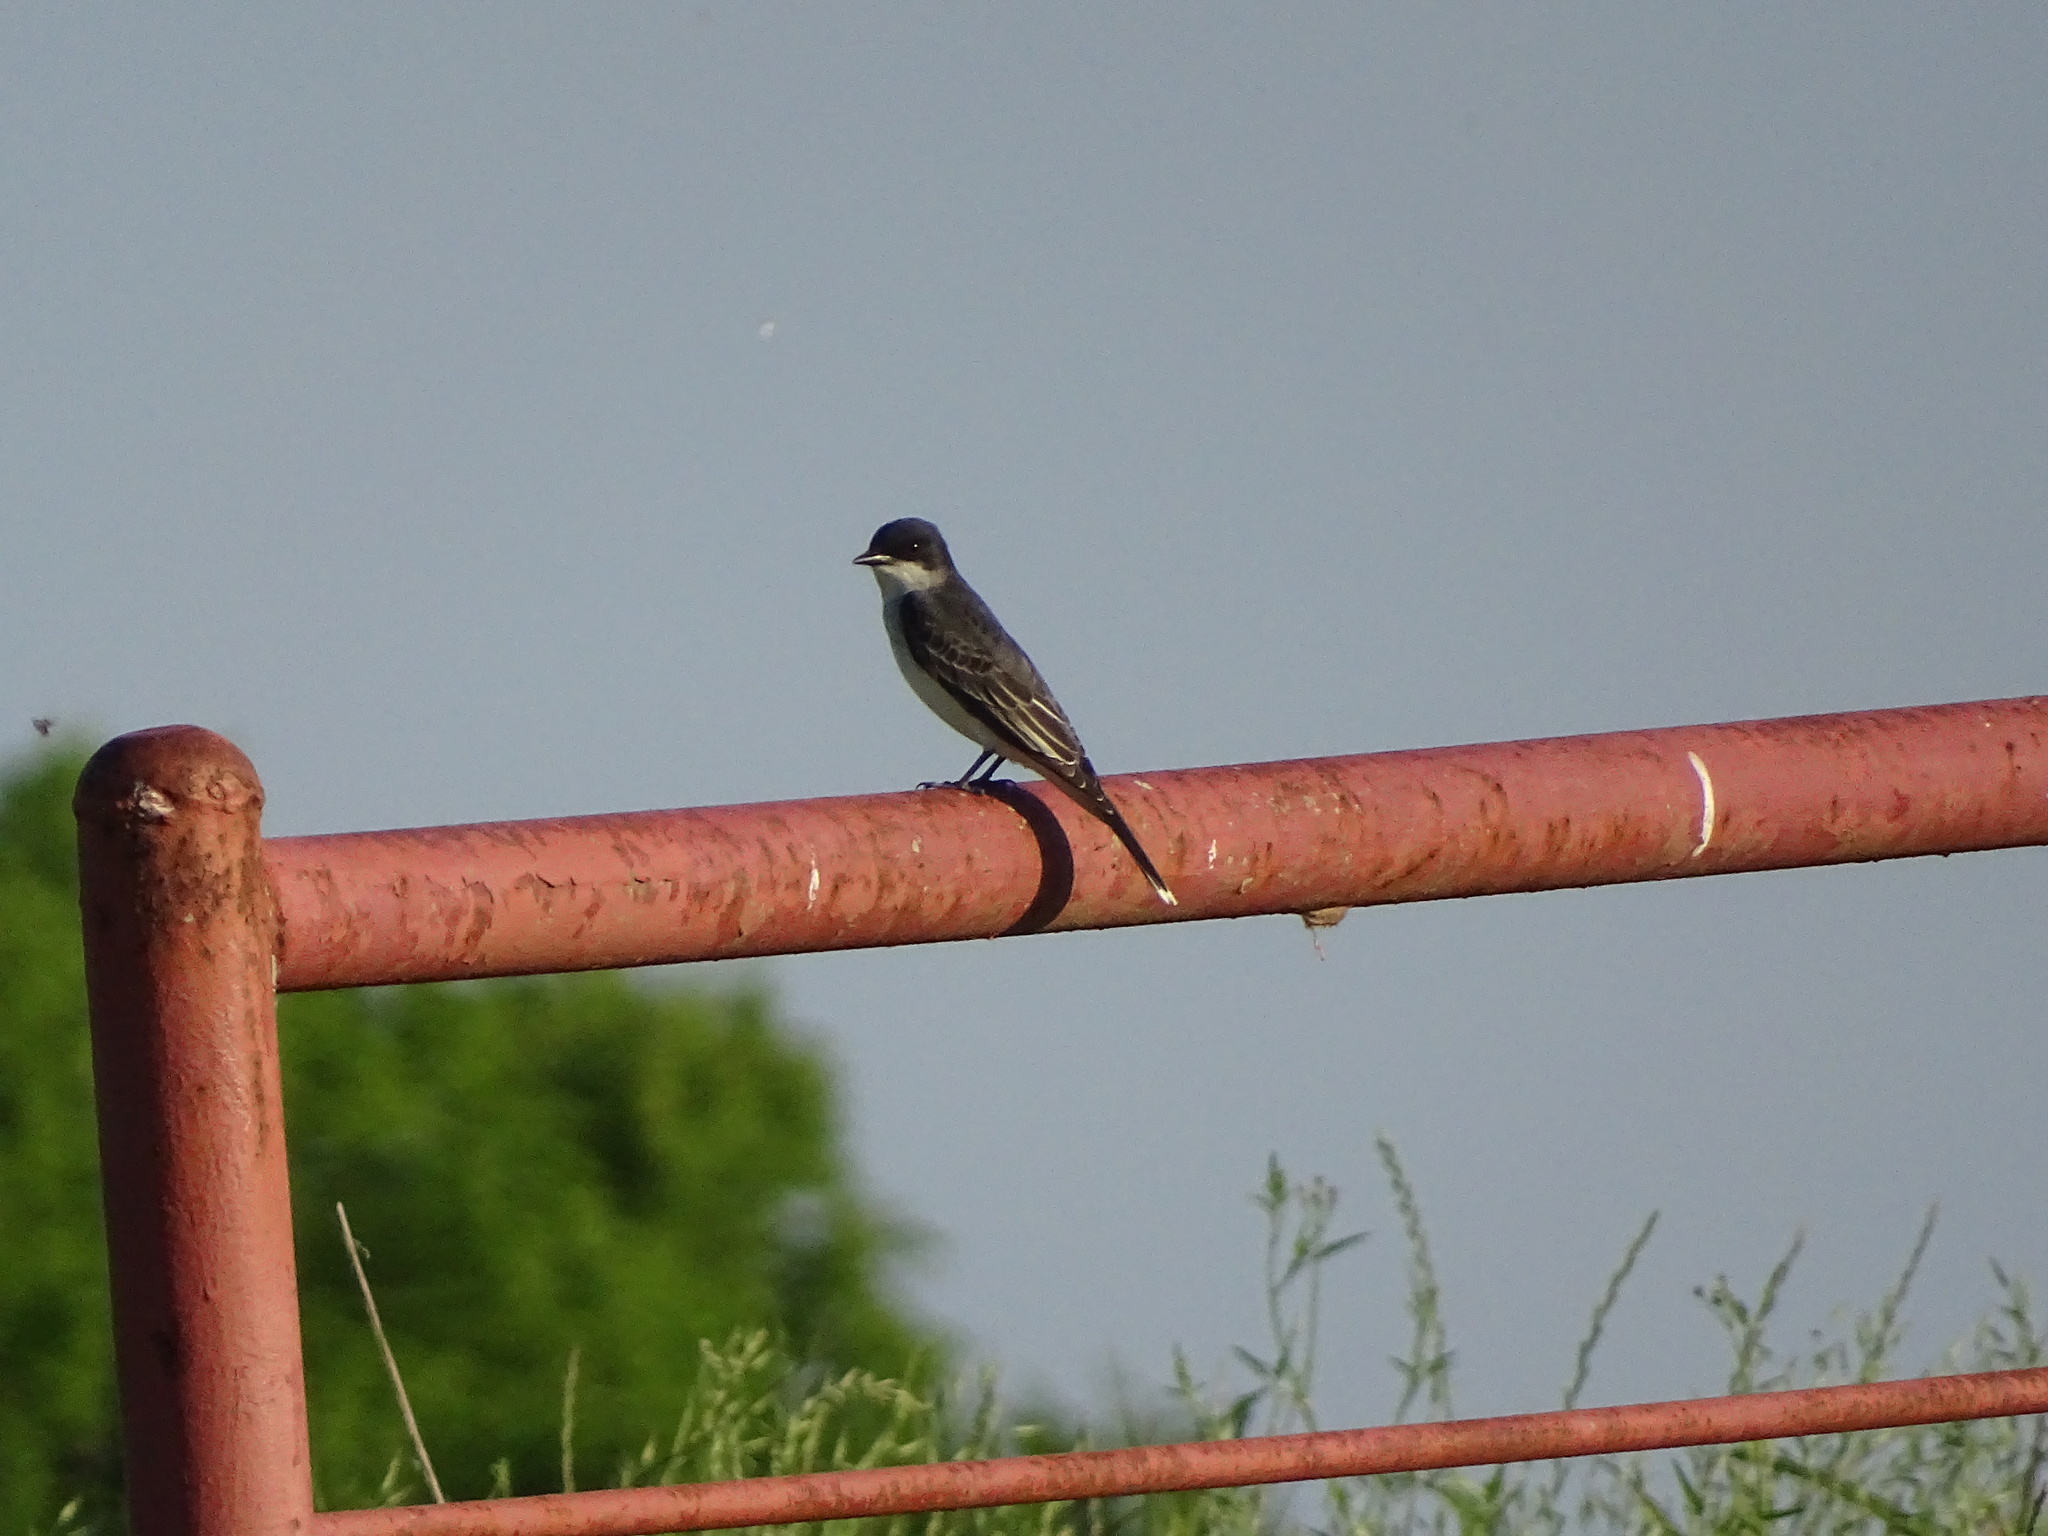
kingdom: Animalia
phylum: Chordata
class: Aves
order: Passeriformes
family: Tyrannidae
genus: Tyrannus
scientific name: Tyrannus tyrannus
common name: Eastern kingbird
